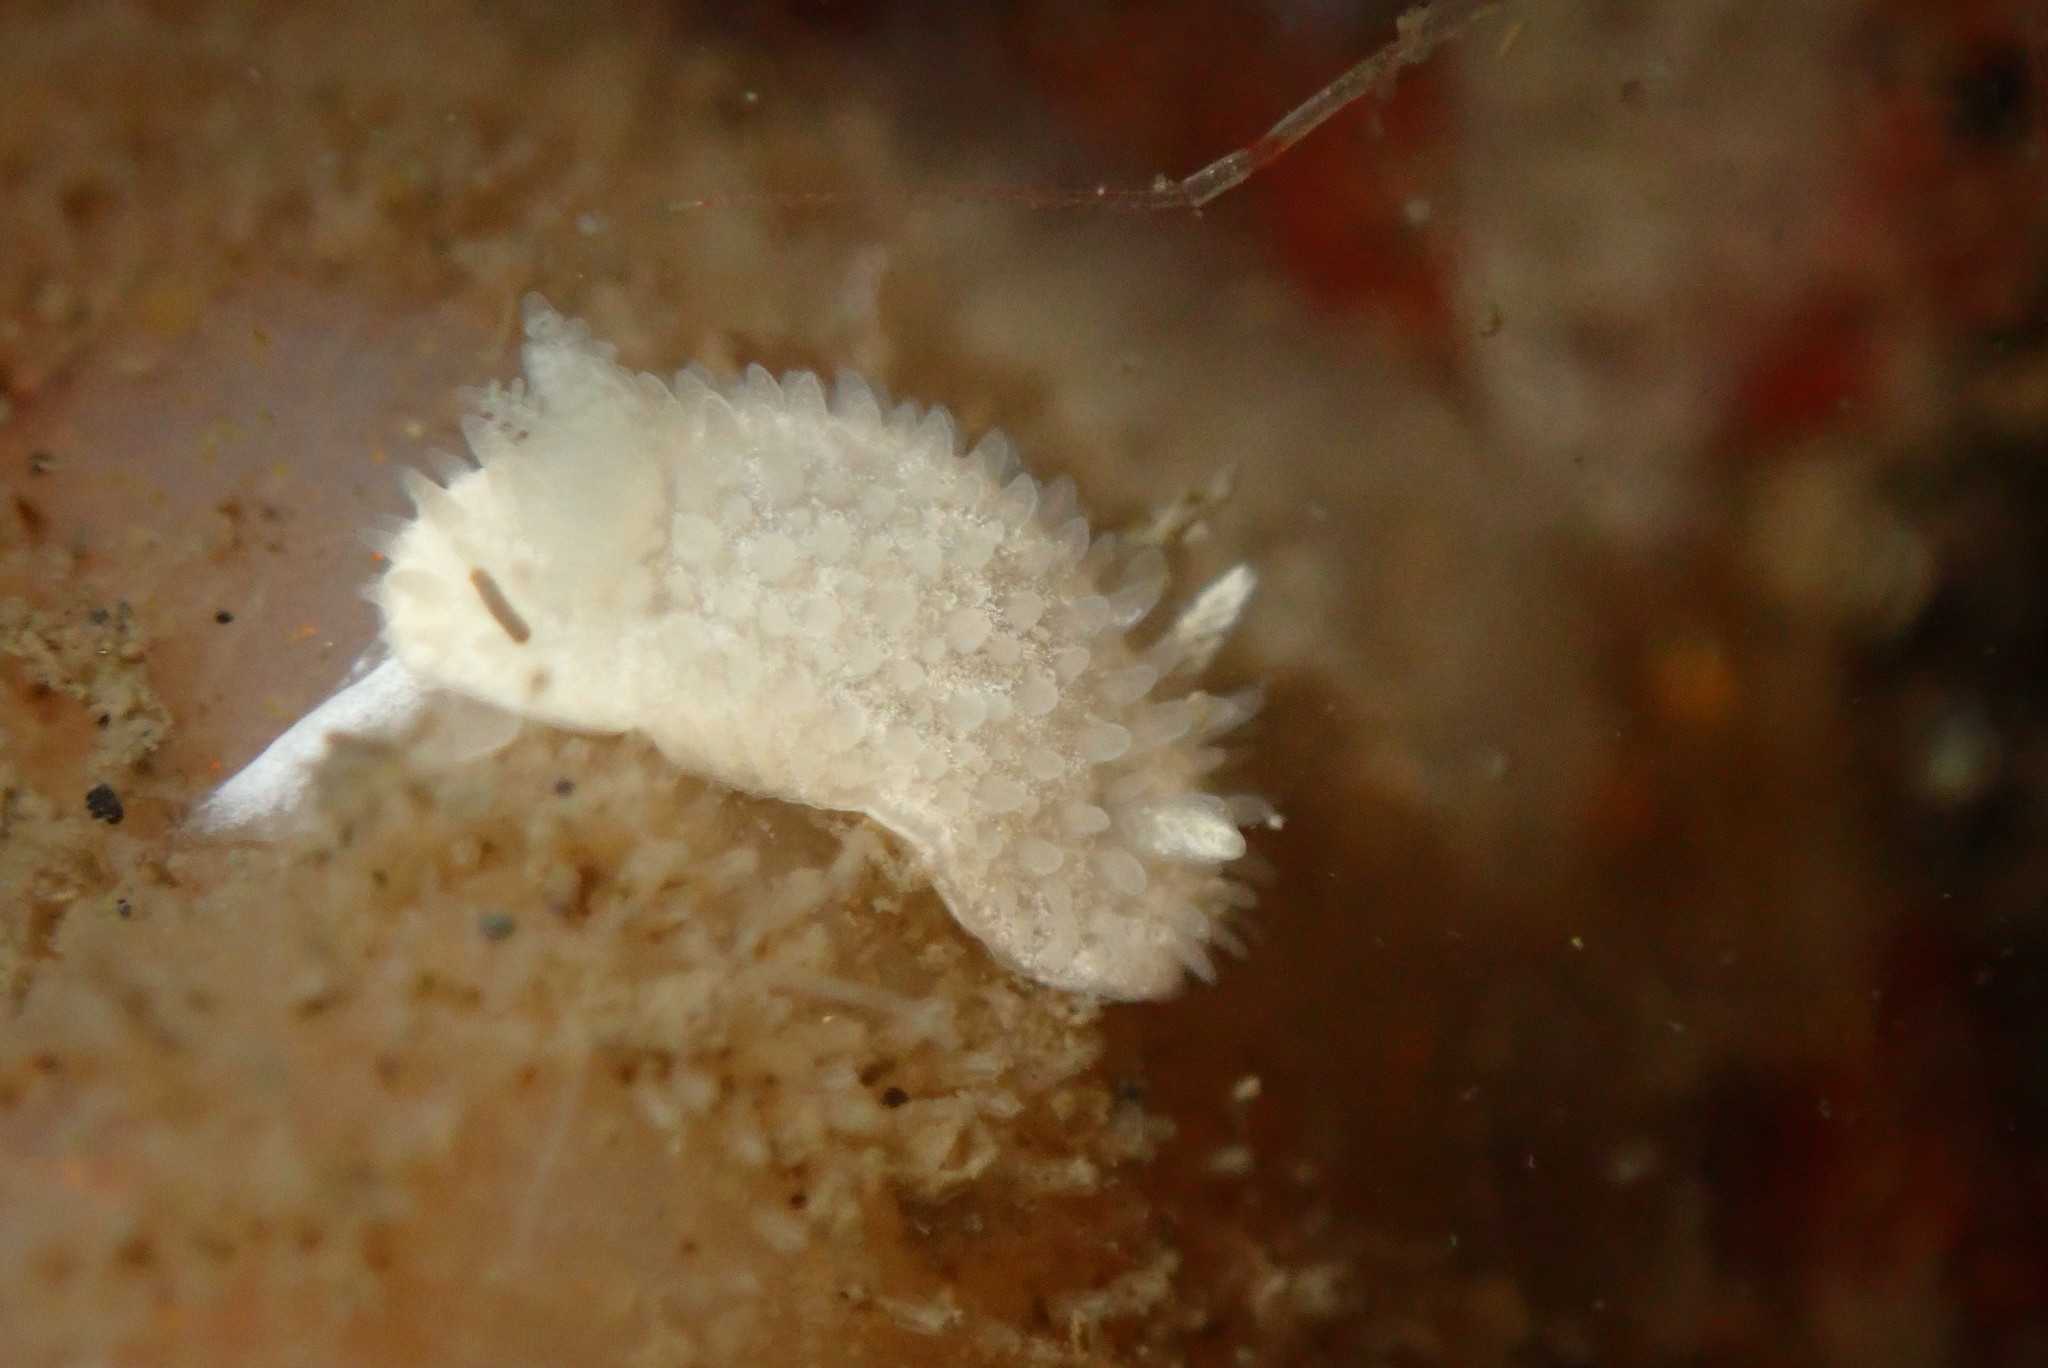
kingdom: Animalia
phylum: Mollusca
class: Gastropoda
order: Nudibranchia
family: Calycidorididae
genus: Diaphorodoris
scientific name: Diaphorodoris lirulatocauda
